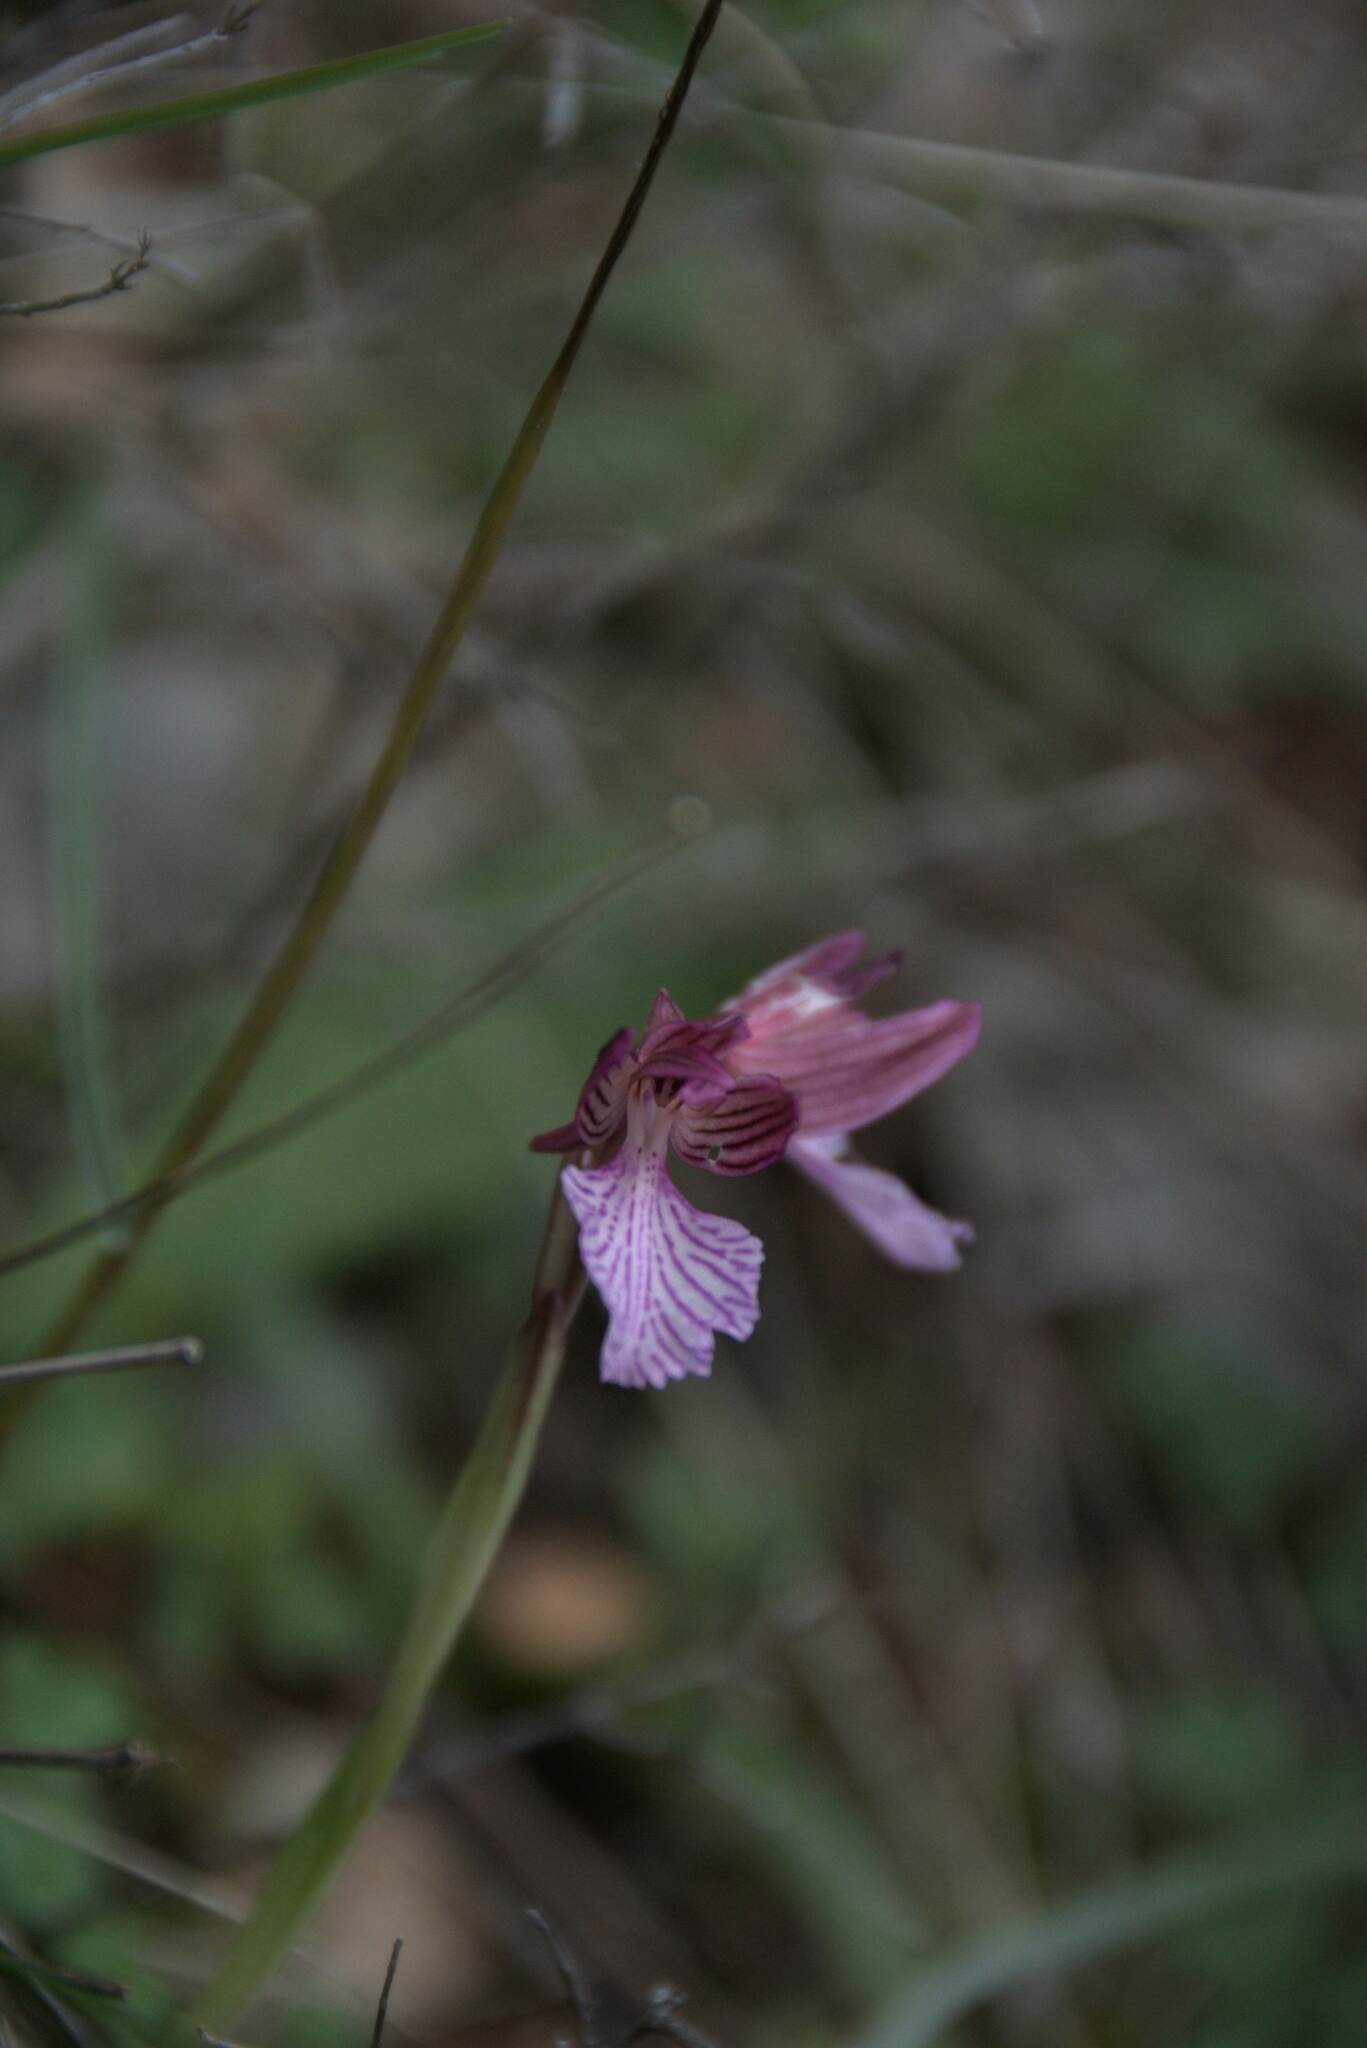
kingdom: Plantae
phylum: Tracheophyta
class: Liliopsida
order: Asparagales
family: Orchidaceae
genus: Anacamptis
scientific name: Anacamptis papilionacea
